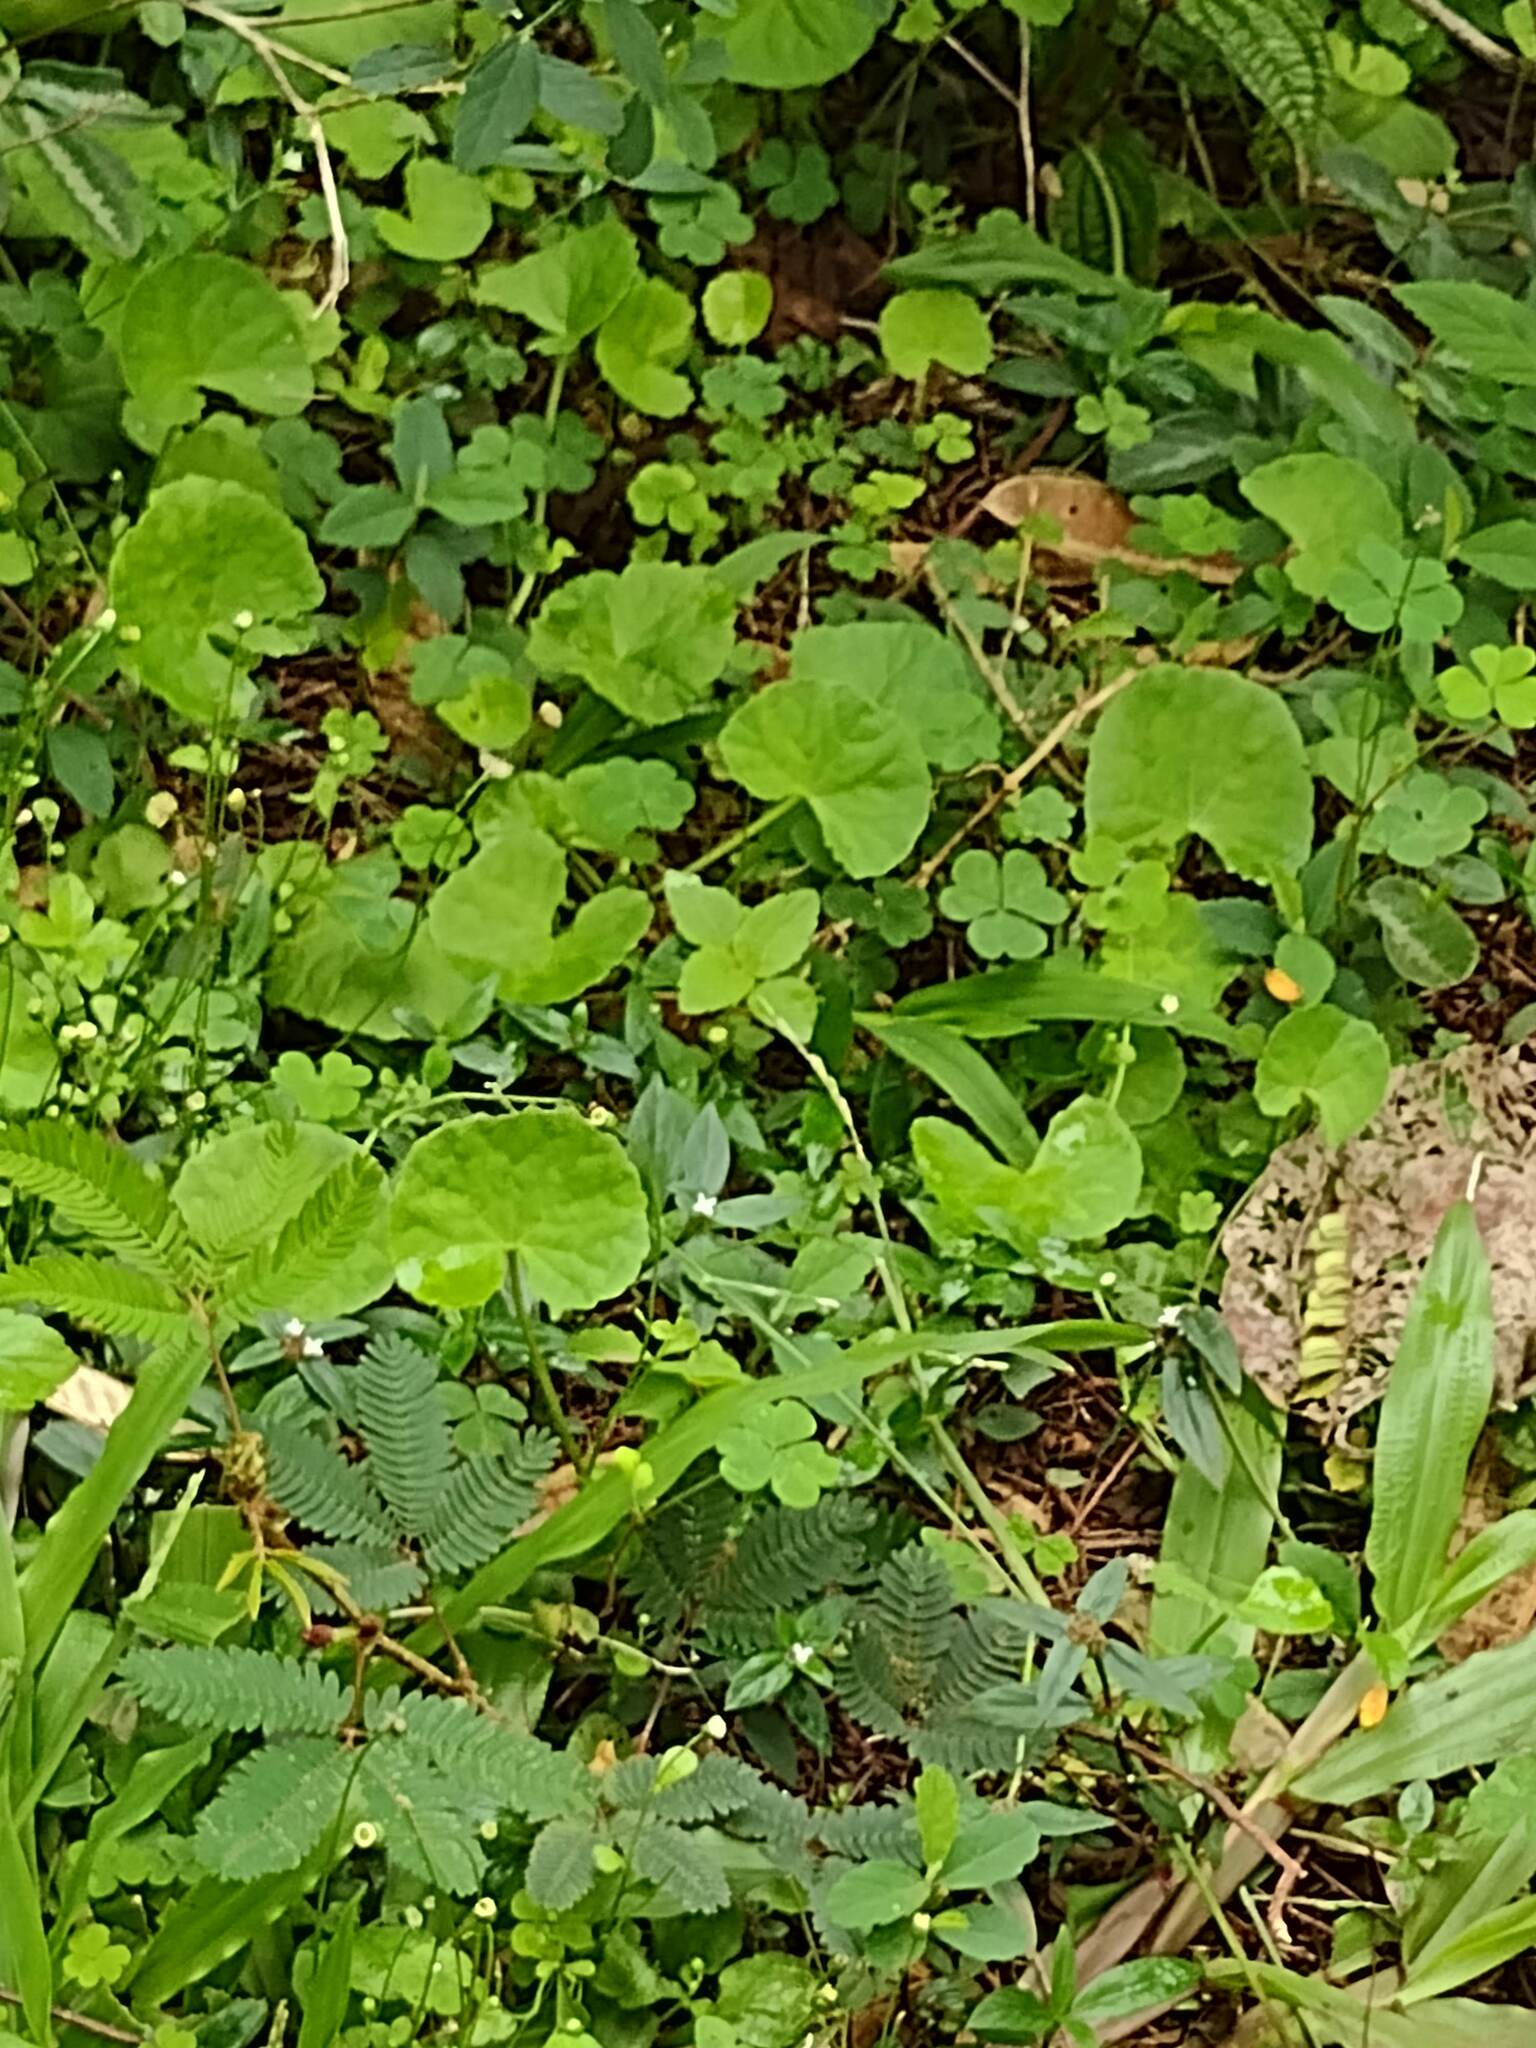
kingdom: Plantae
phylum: Tracheophyta
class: Magnoliopsida
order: Apiales
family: Apiaceae
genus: Centella
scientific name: Centella asiatica
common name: Spadeleaf
